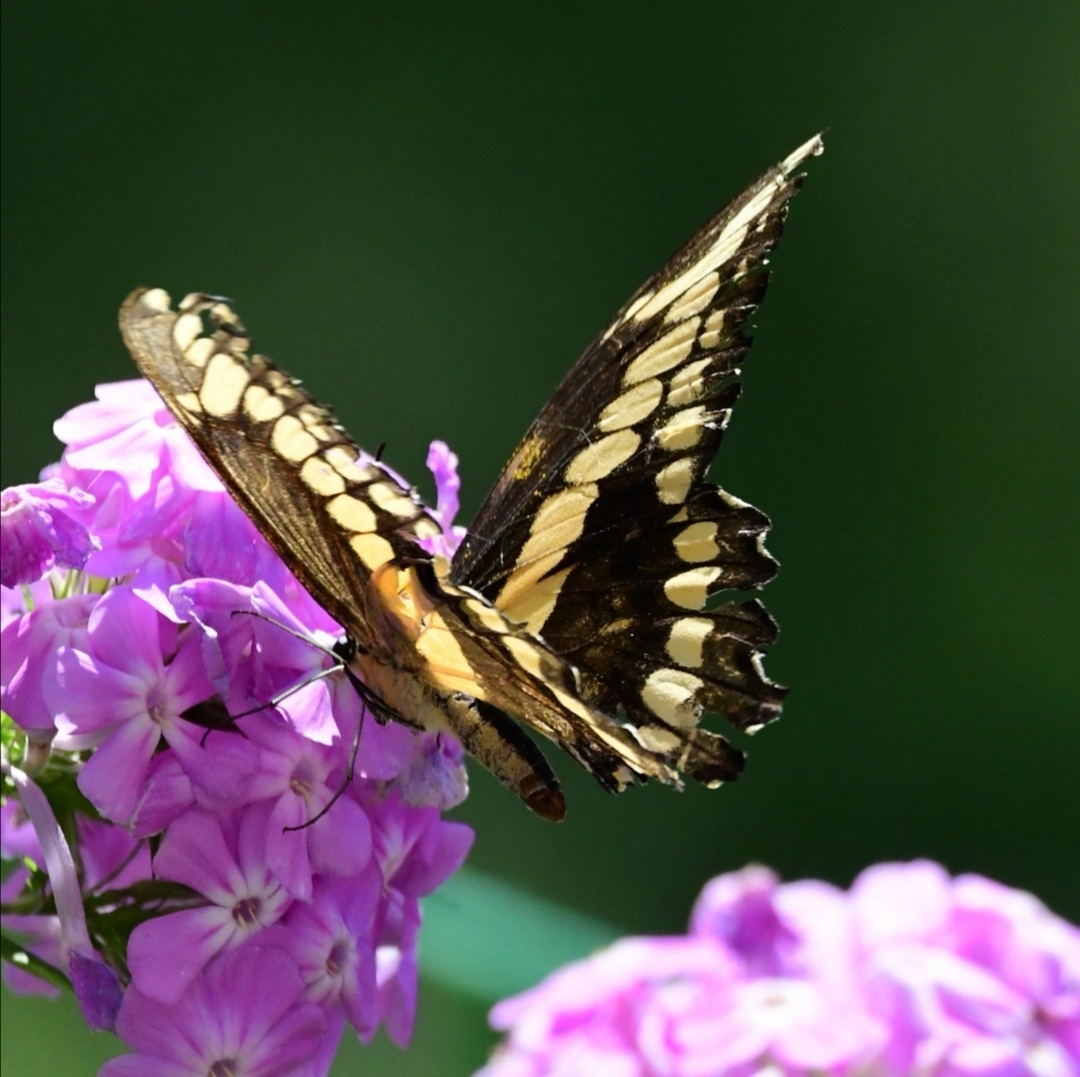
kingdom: Animalia
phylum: Arthropoda
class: Insecta
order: Lepidoptera
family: Papilionidae
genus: Papilio
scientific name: Papilio cresphontes
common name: Giant swallowtail
